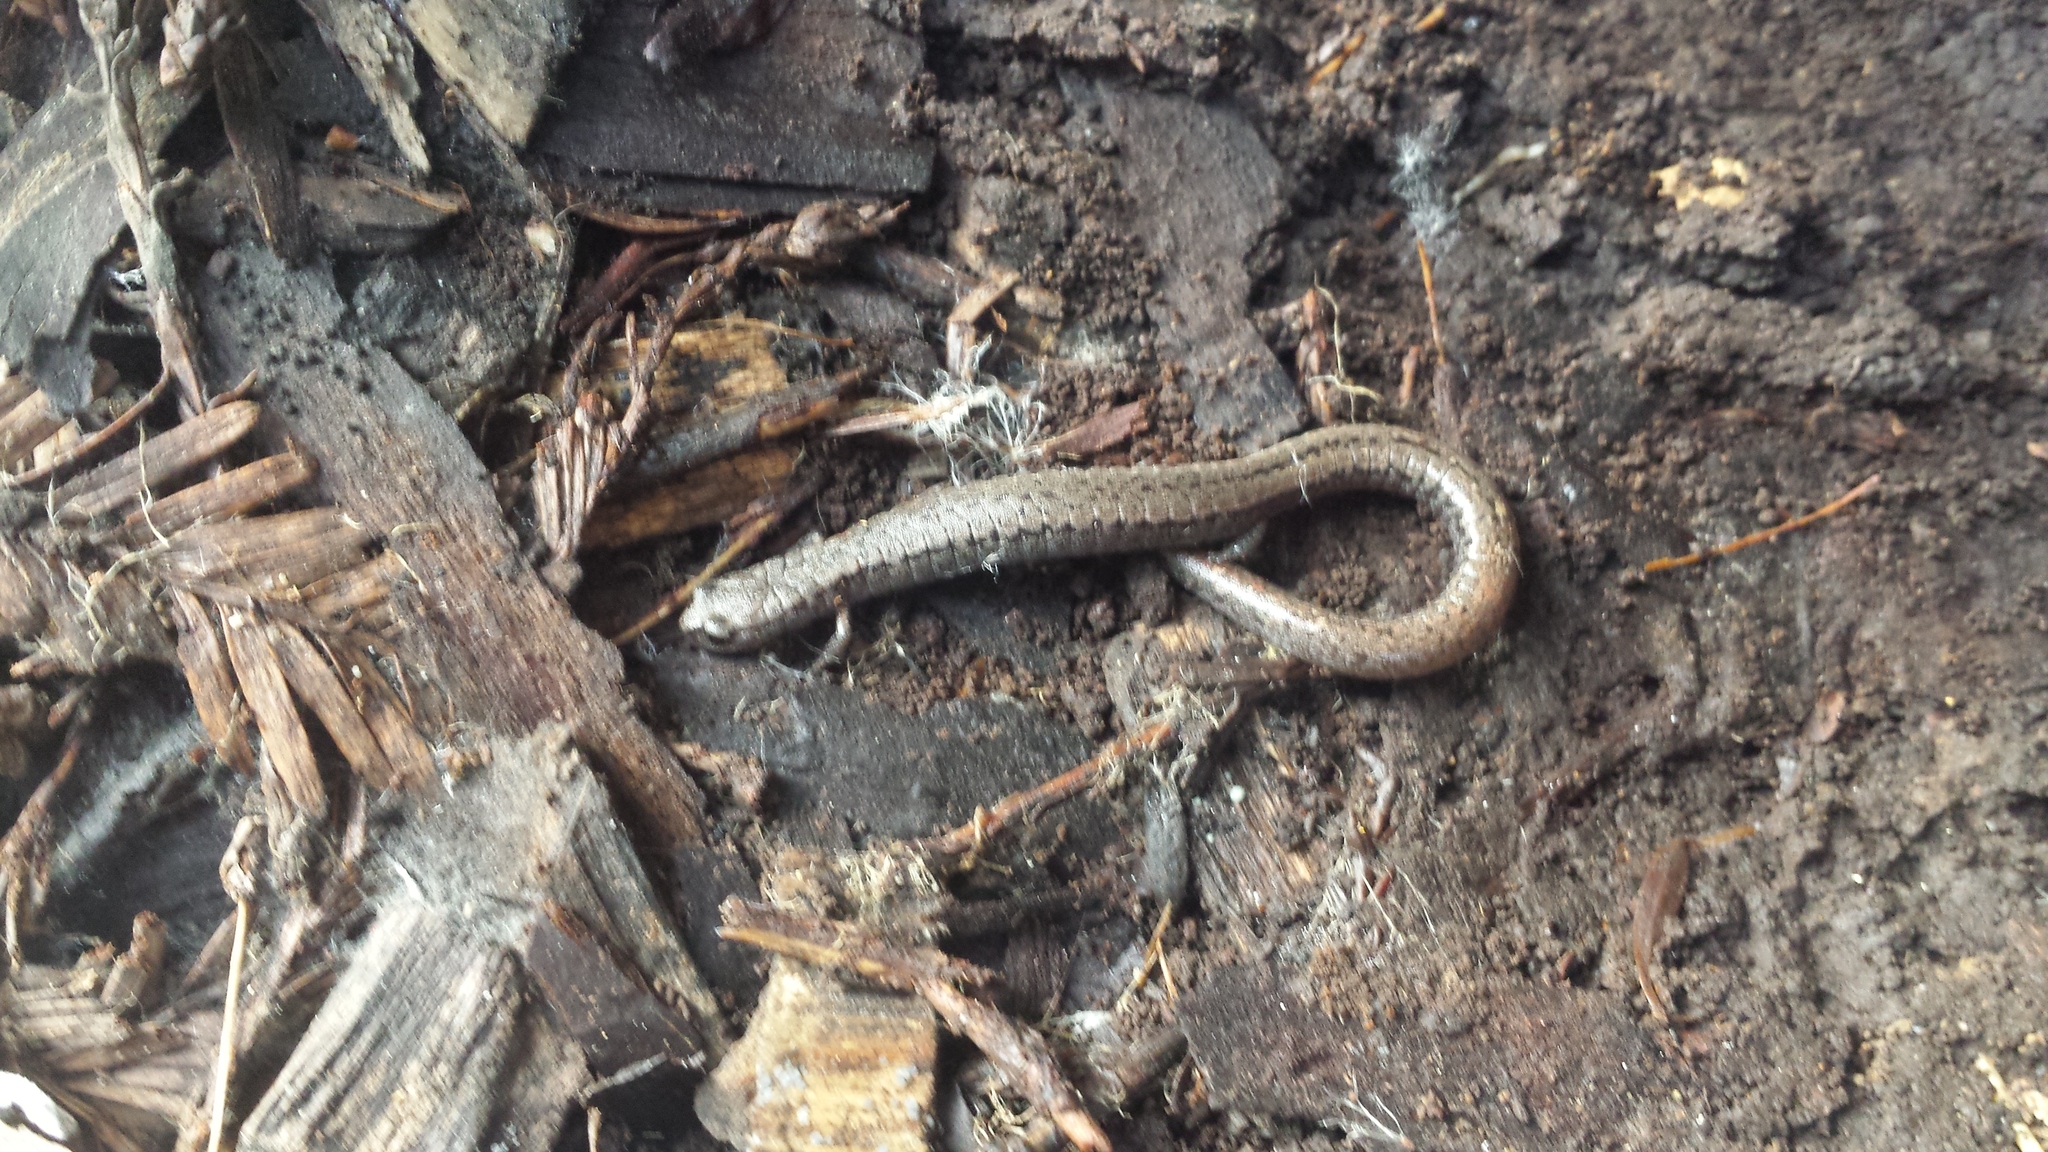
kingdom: Animalia
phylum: Chordata
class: Amphibia
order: Caudata
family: Plethodontidae
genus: Batrachoseps
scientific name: Batrachoseps attenuatus
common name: California slender salamander
